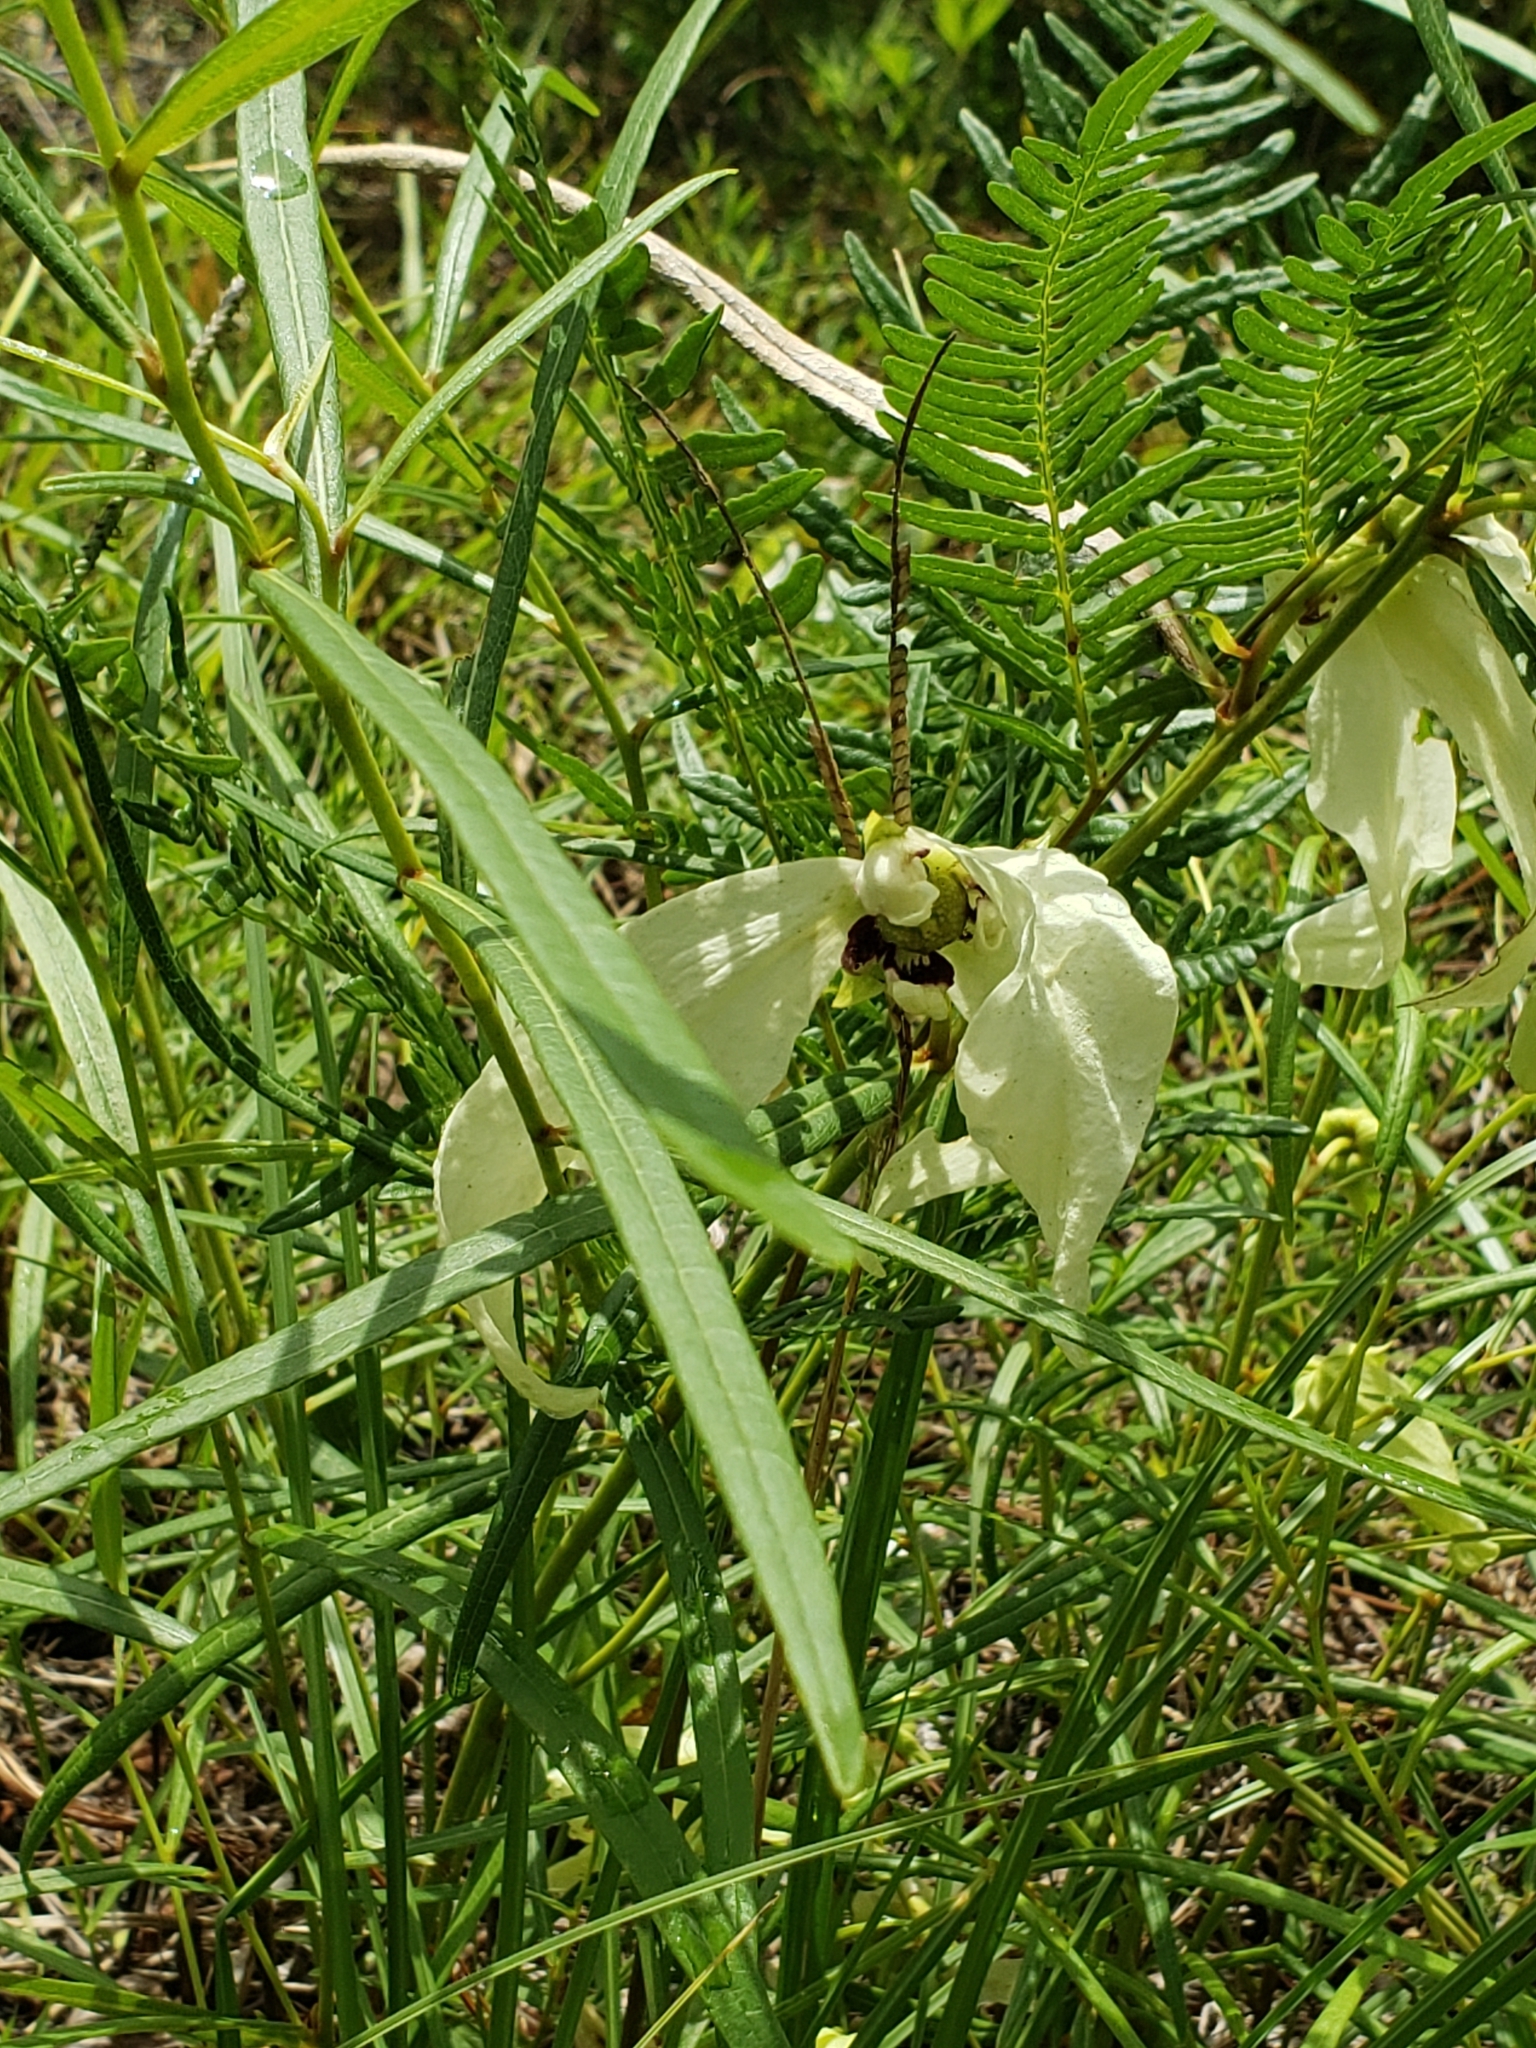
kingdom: Plantae
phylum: Tracheophyta
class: Magnoliopsida
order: Magnoliales
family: Annonaceae
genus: Asimina
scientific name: Asimina longifolia
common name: Polecatbush
